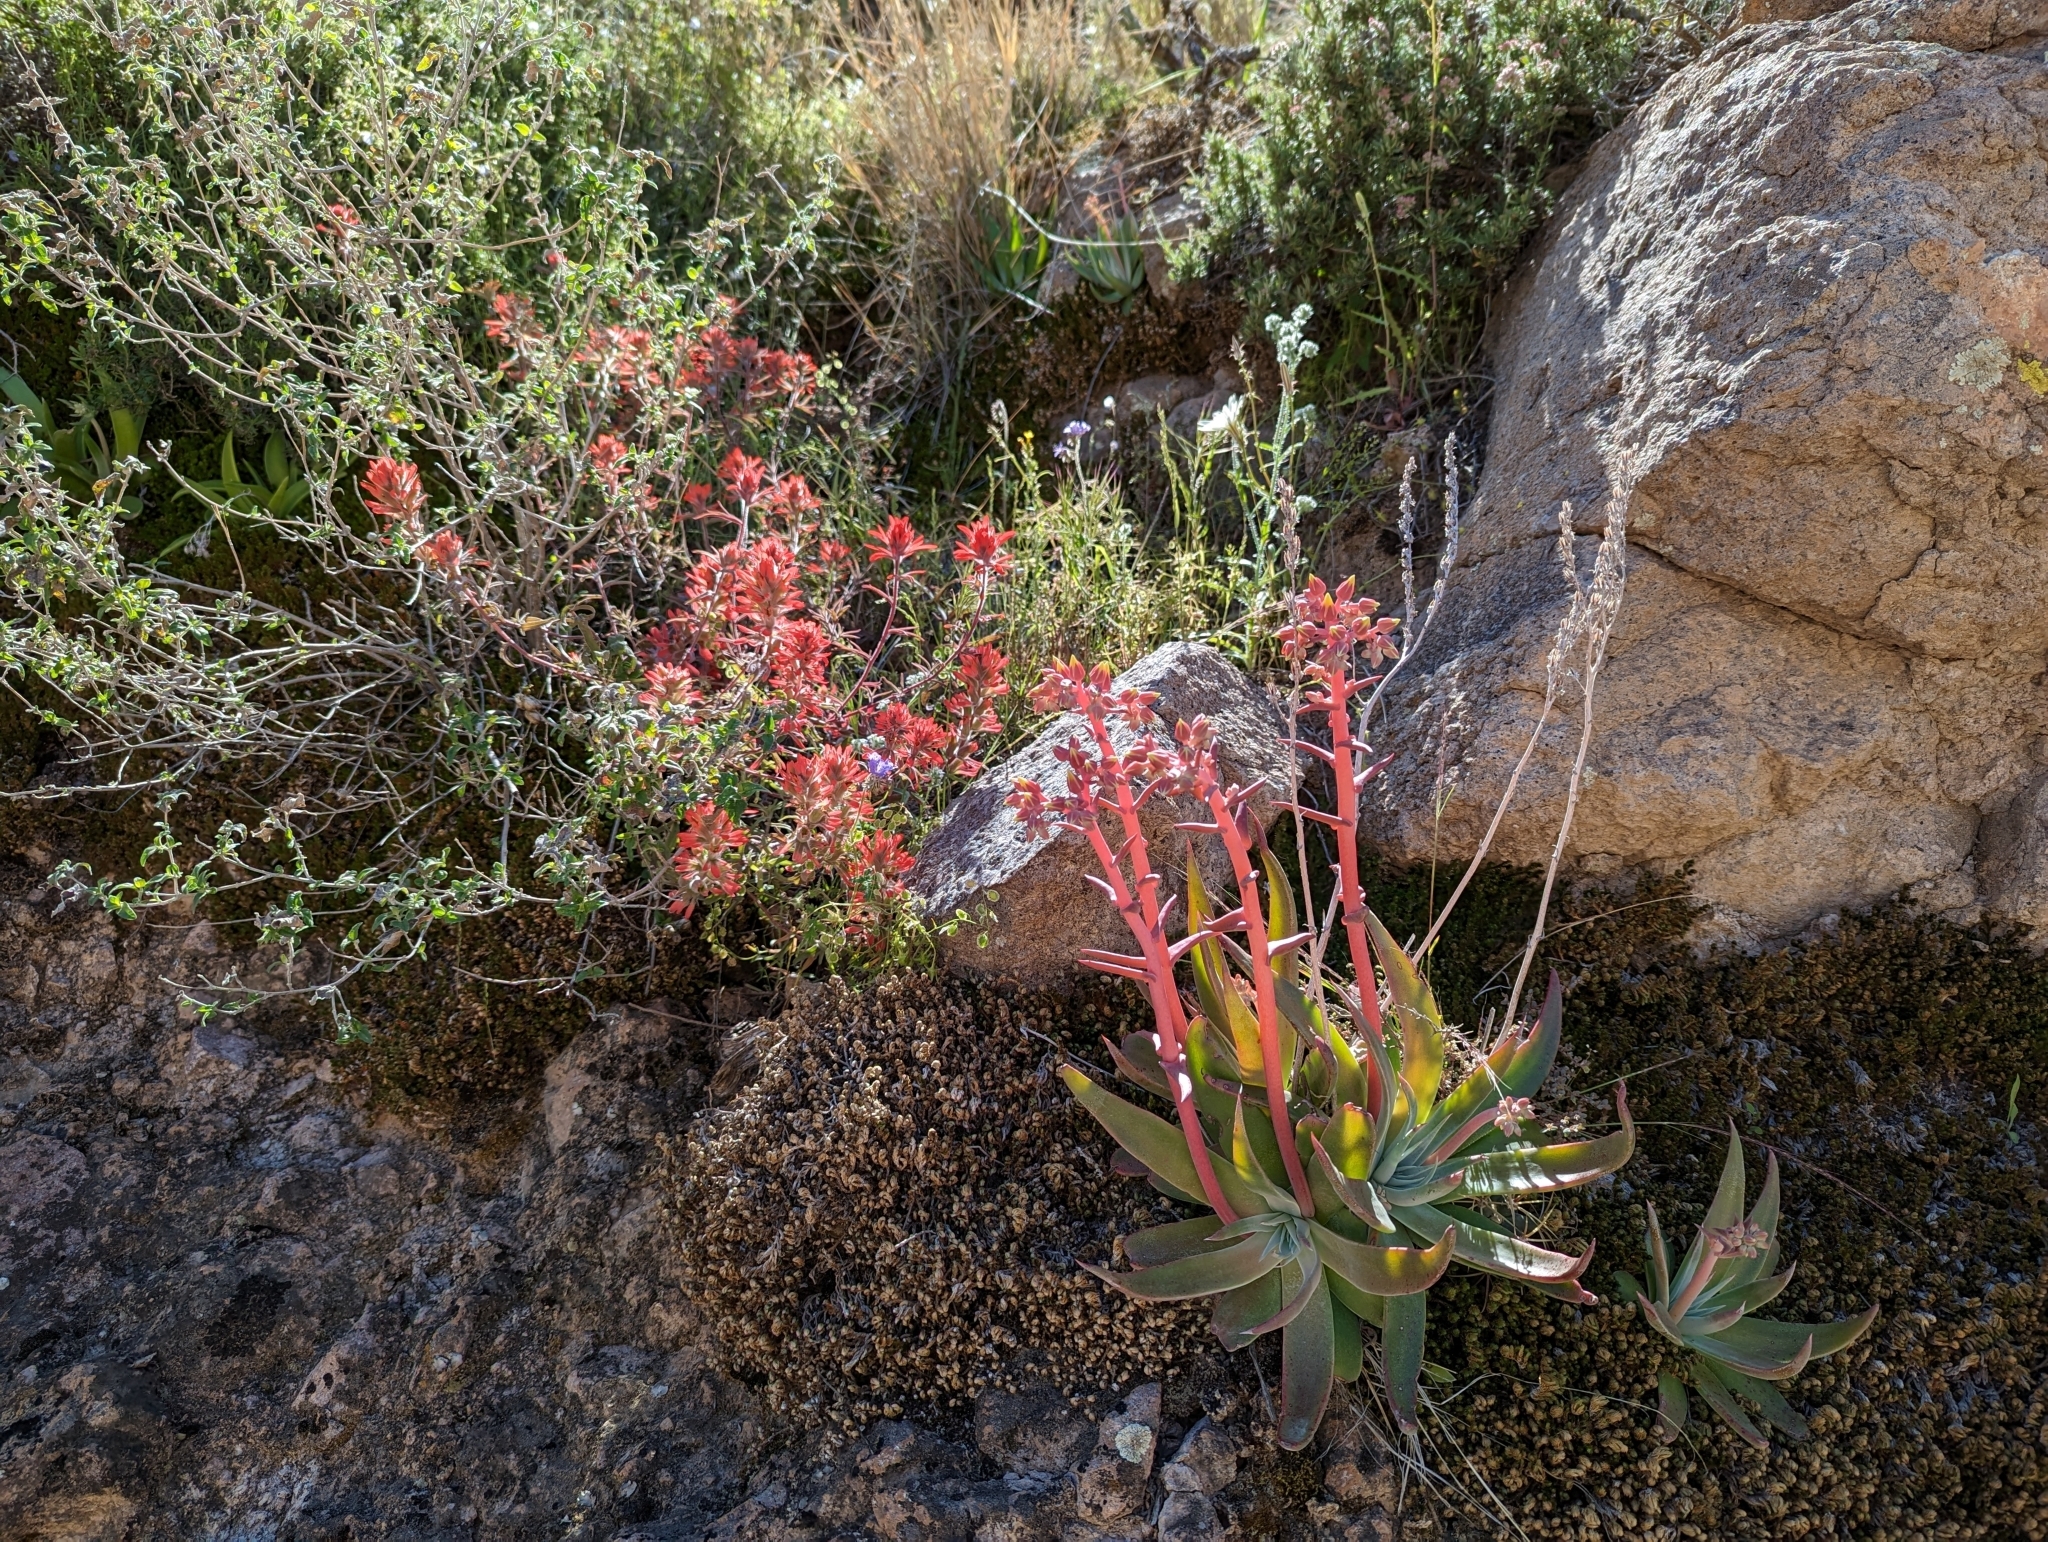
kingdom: Plantae
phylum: Tracheophyta
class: Magnoliopsida
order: Saxifragales
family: Crassulaceae
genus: Dudleya
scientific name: Dudleya saxosa
